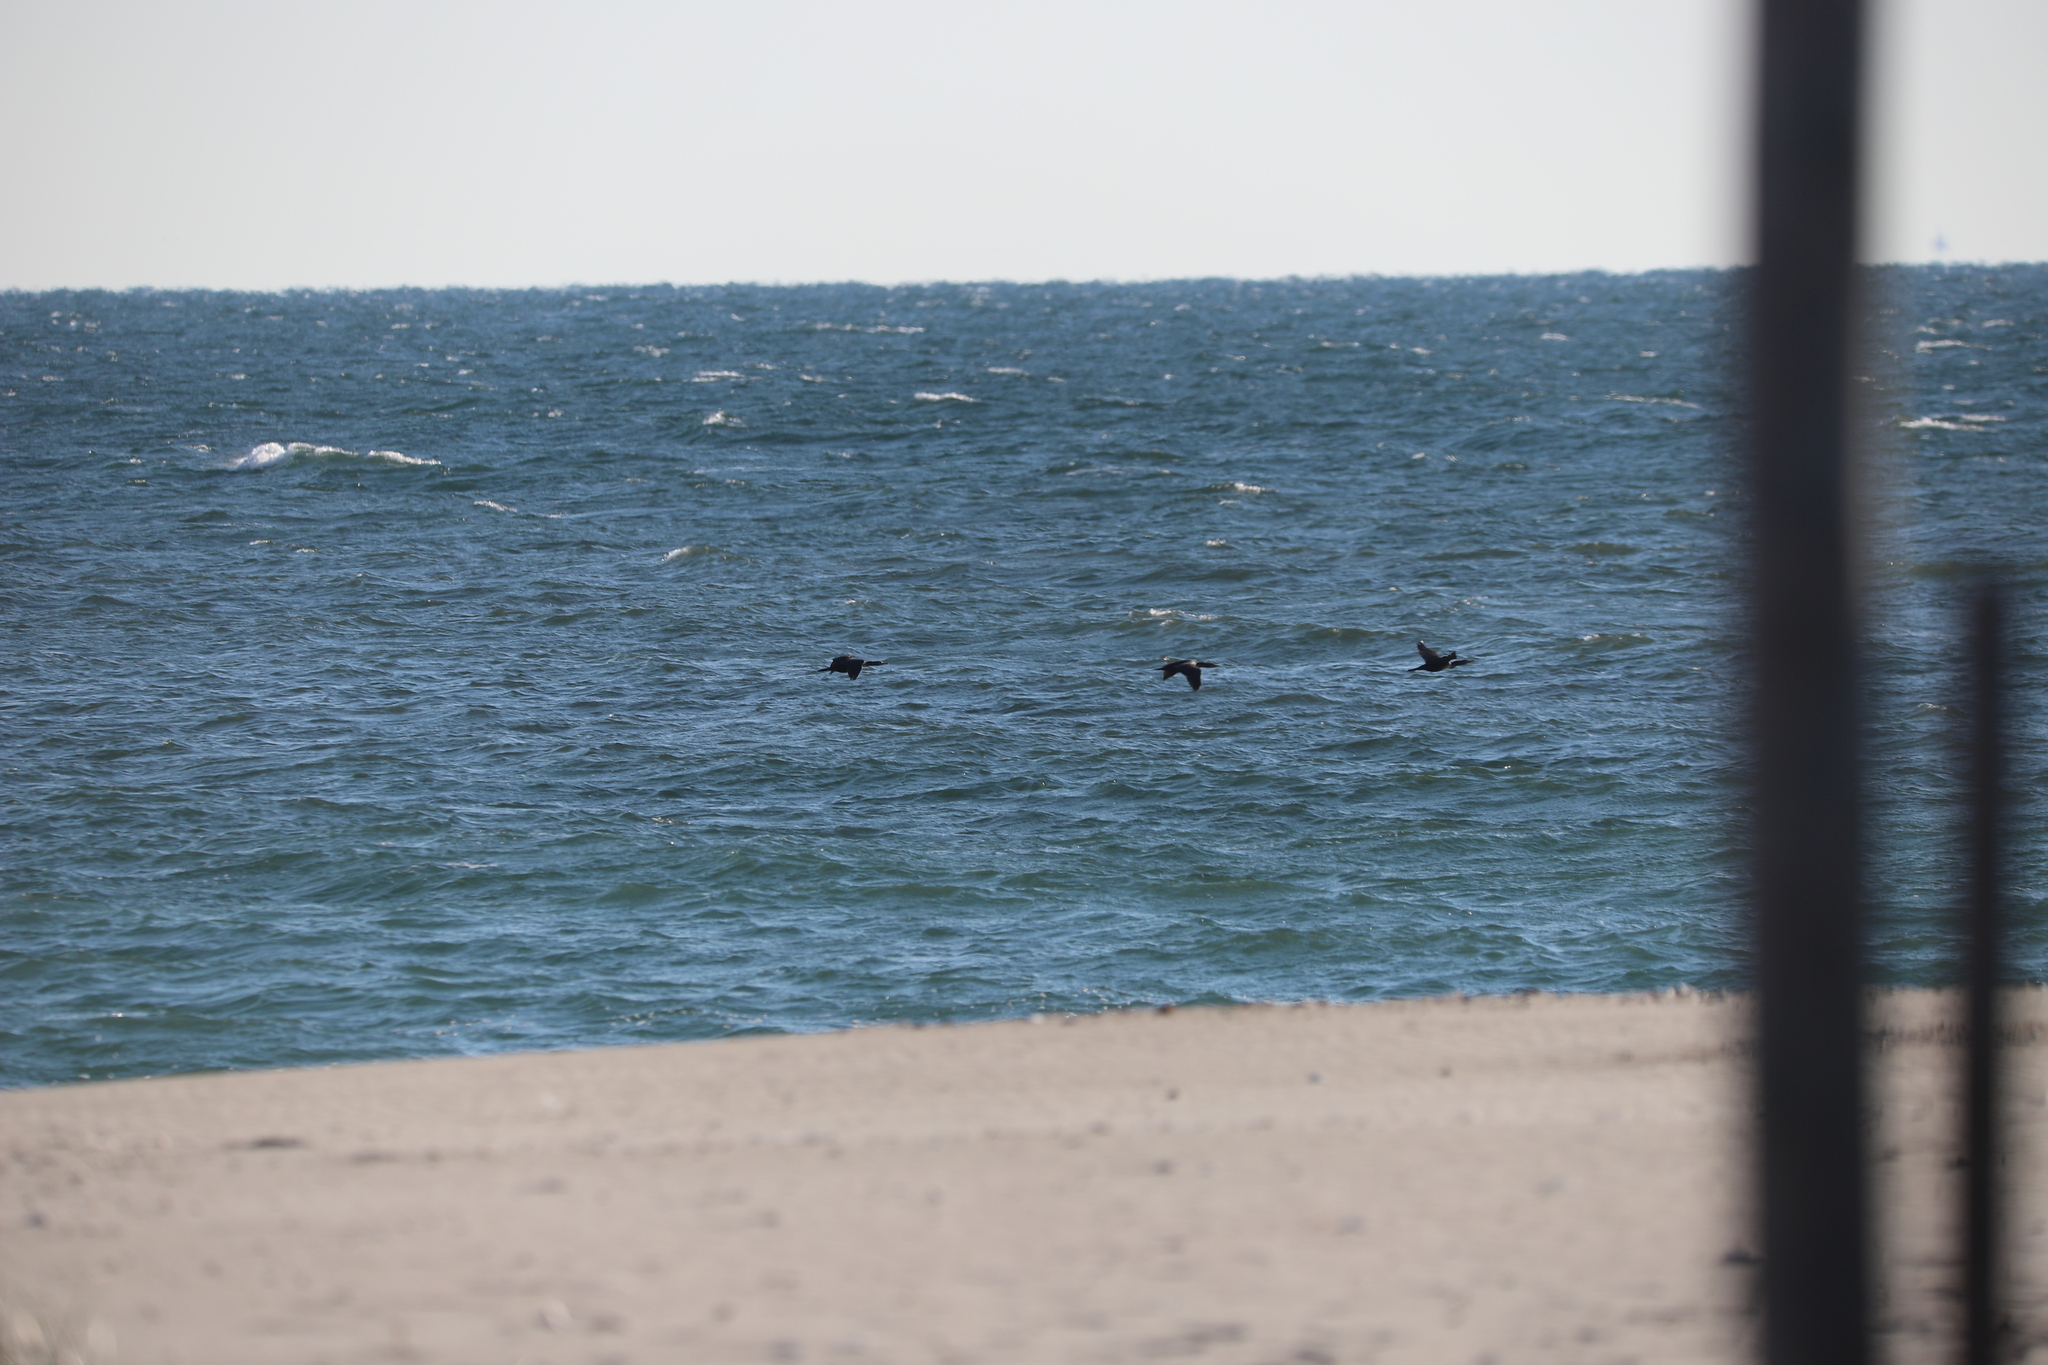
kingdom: Animalia
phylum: Chordata
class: Aves
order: Suliformes
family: Phalacrocoracidae
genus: Phalacrocorax
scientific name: Phalacrocorax auritus
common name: Double-crested cormorant
